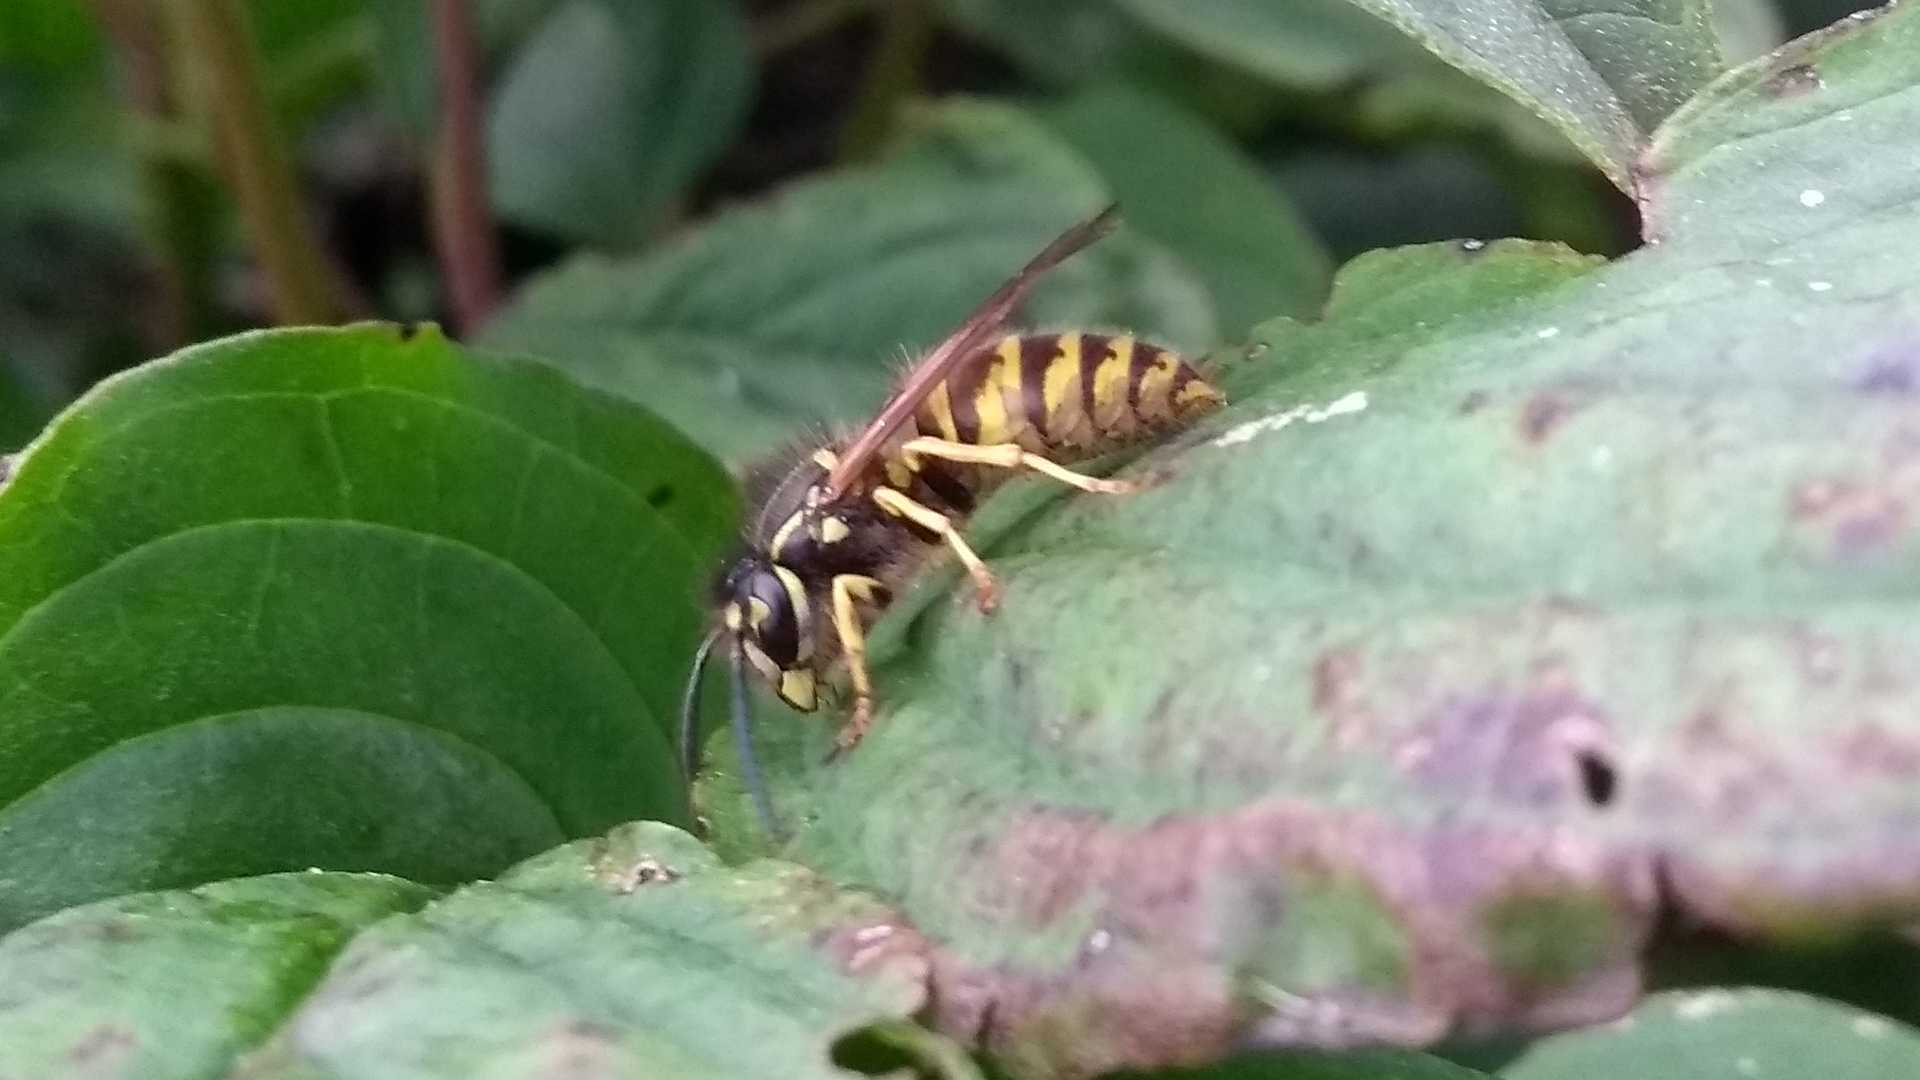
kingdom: Animalia
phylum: Arthropoda
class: Insecta
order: Hymenoptera
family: Vespidae
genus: Vespula
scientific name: Vespula vulgaris
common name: Common wasp
